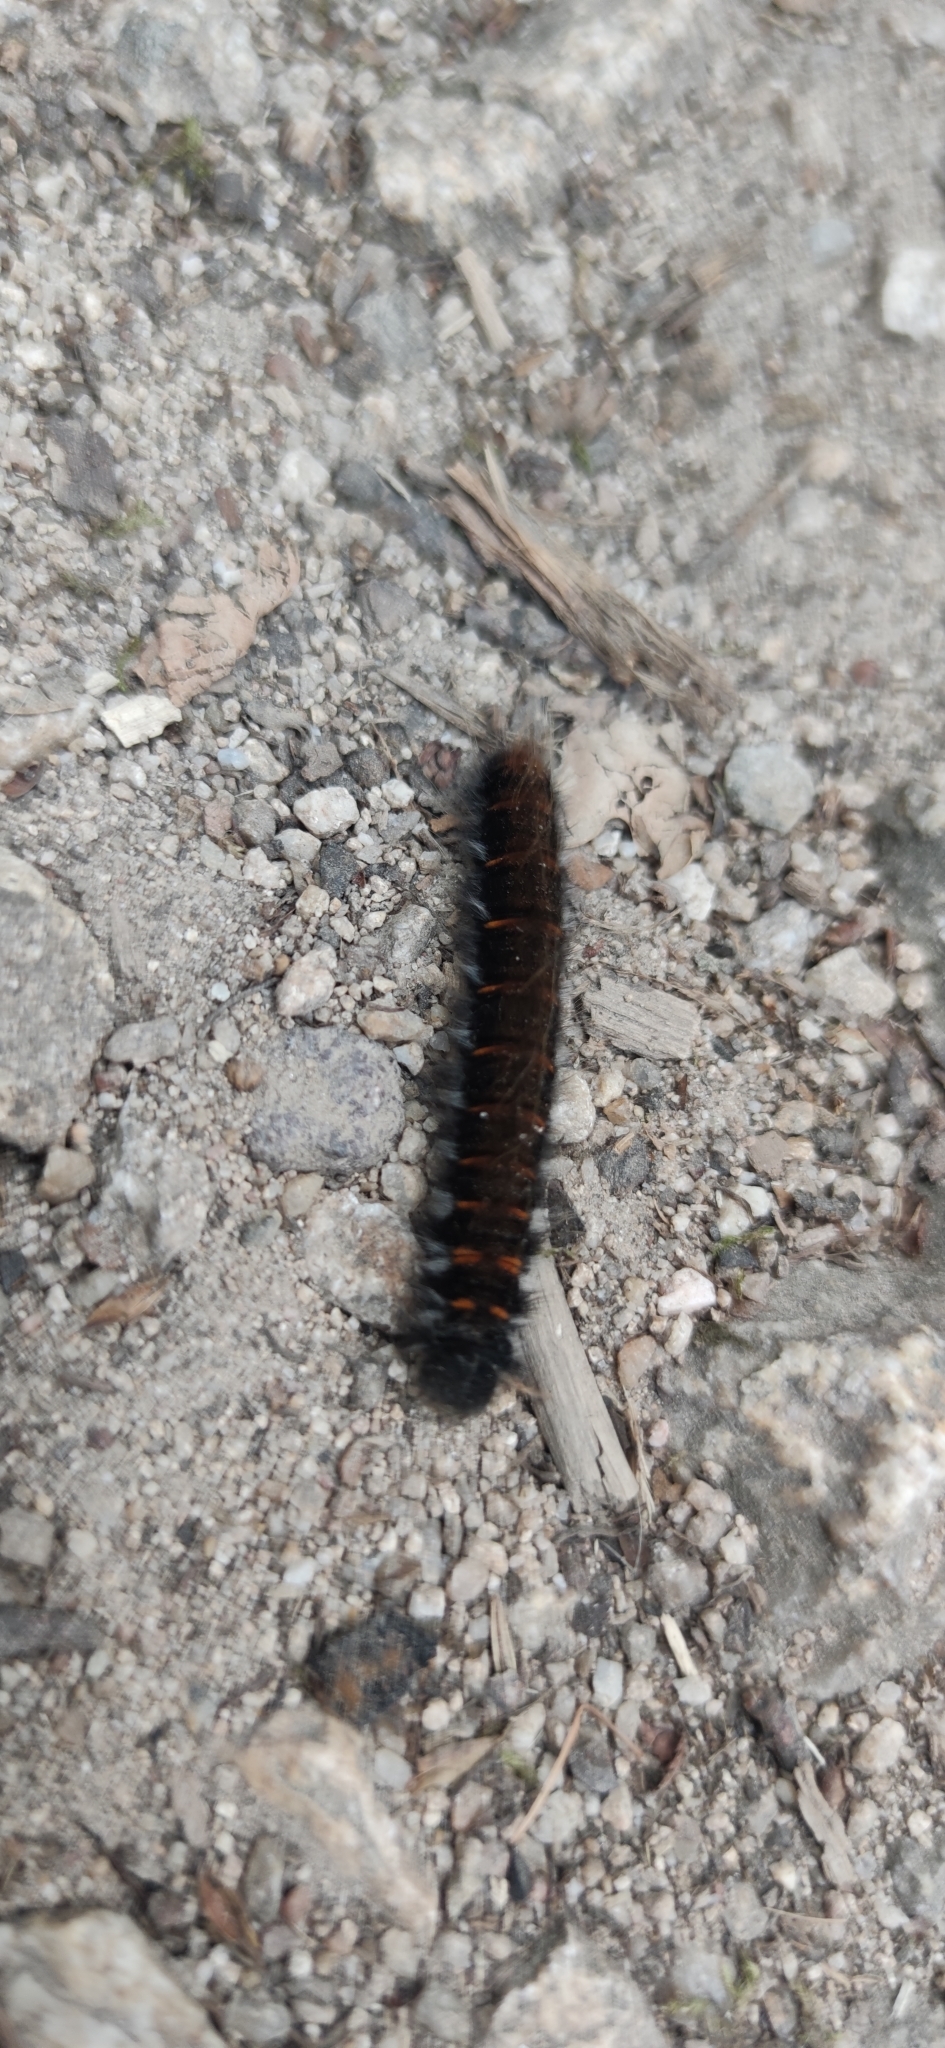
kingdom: Animalia
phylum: Arthropoda
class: Insecta
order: Lepidoptera
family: Lasiocampidae
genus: Macrothylacia
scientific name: Macrothylacia rubi
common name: Fox moth
